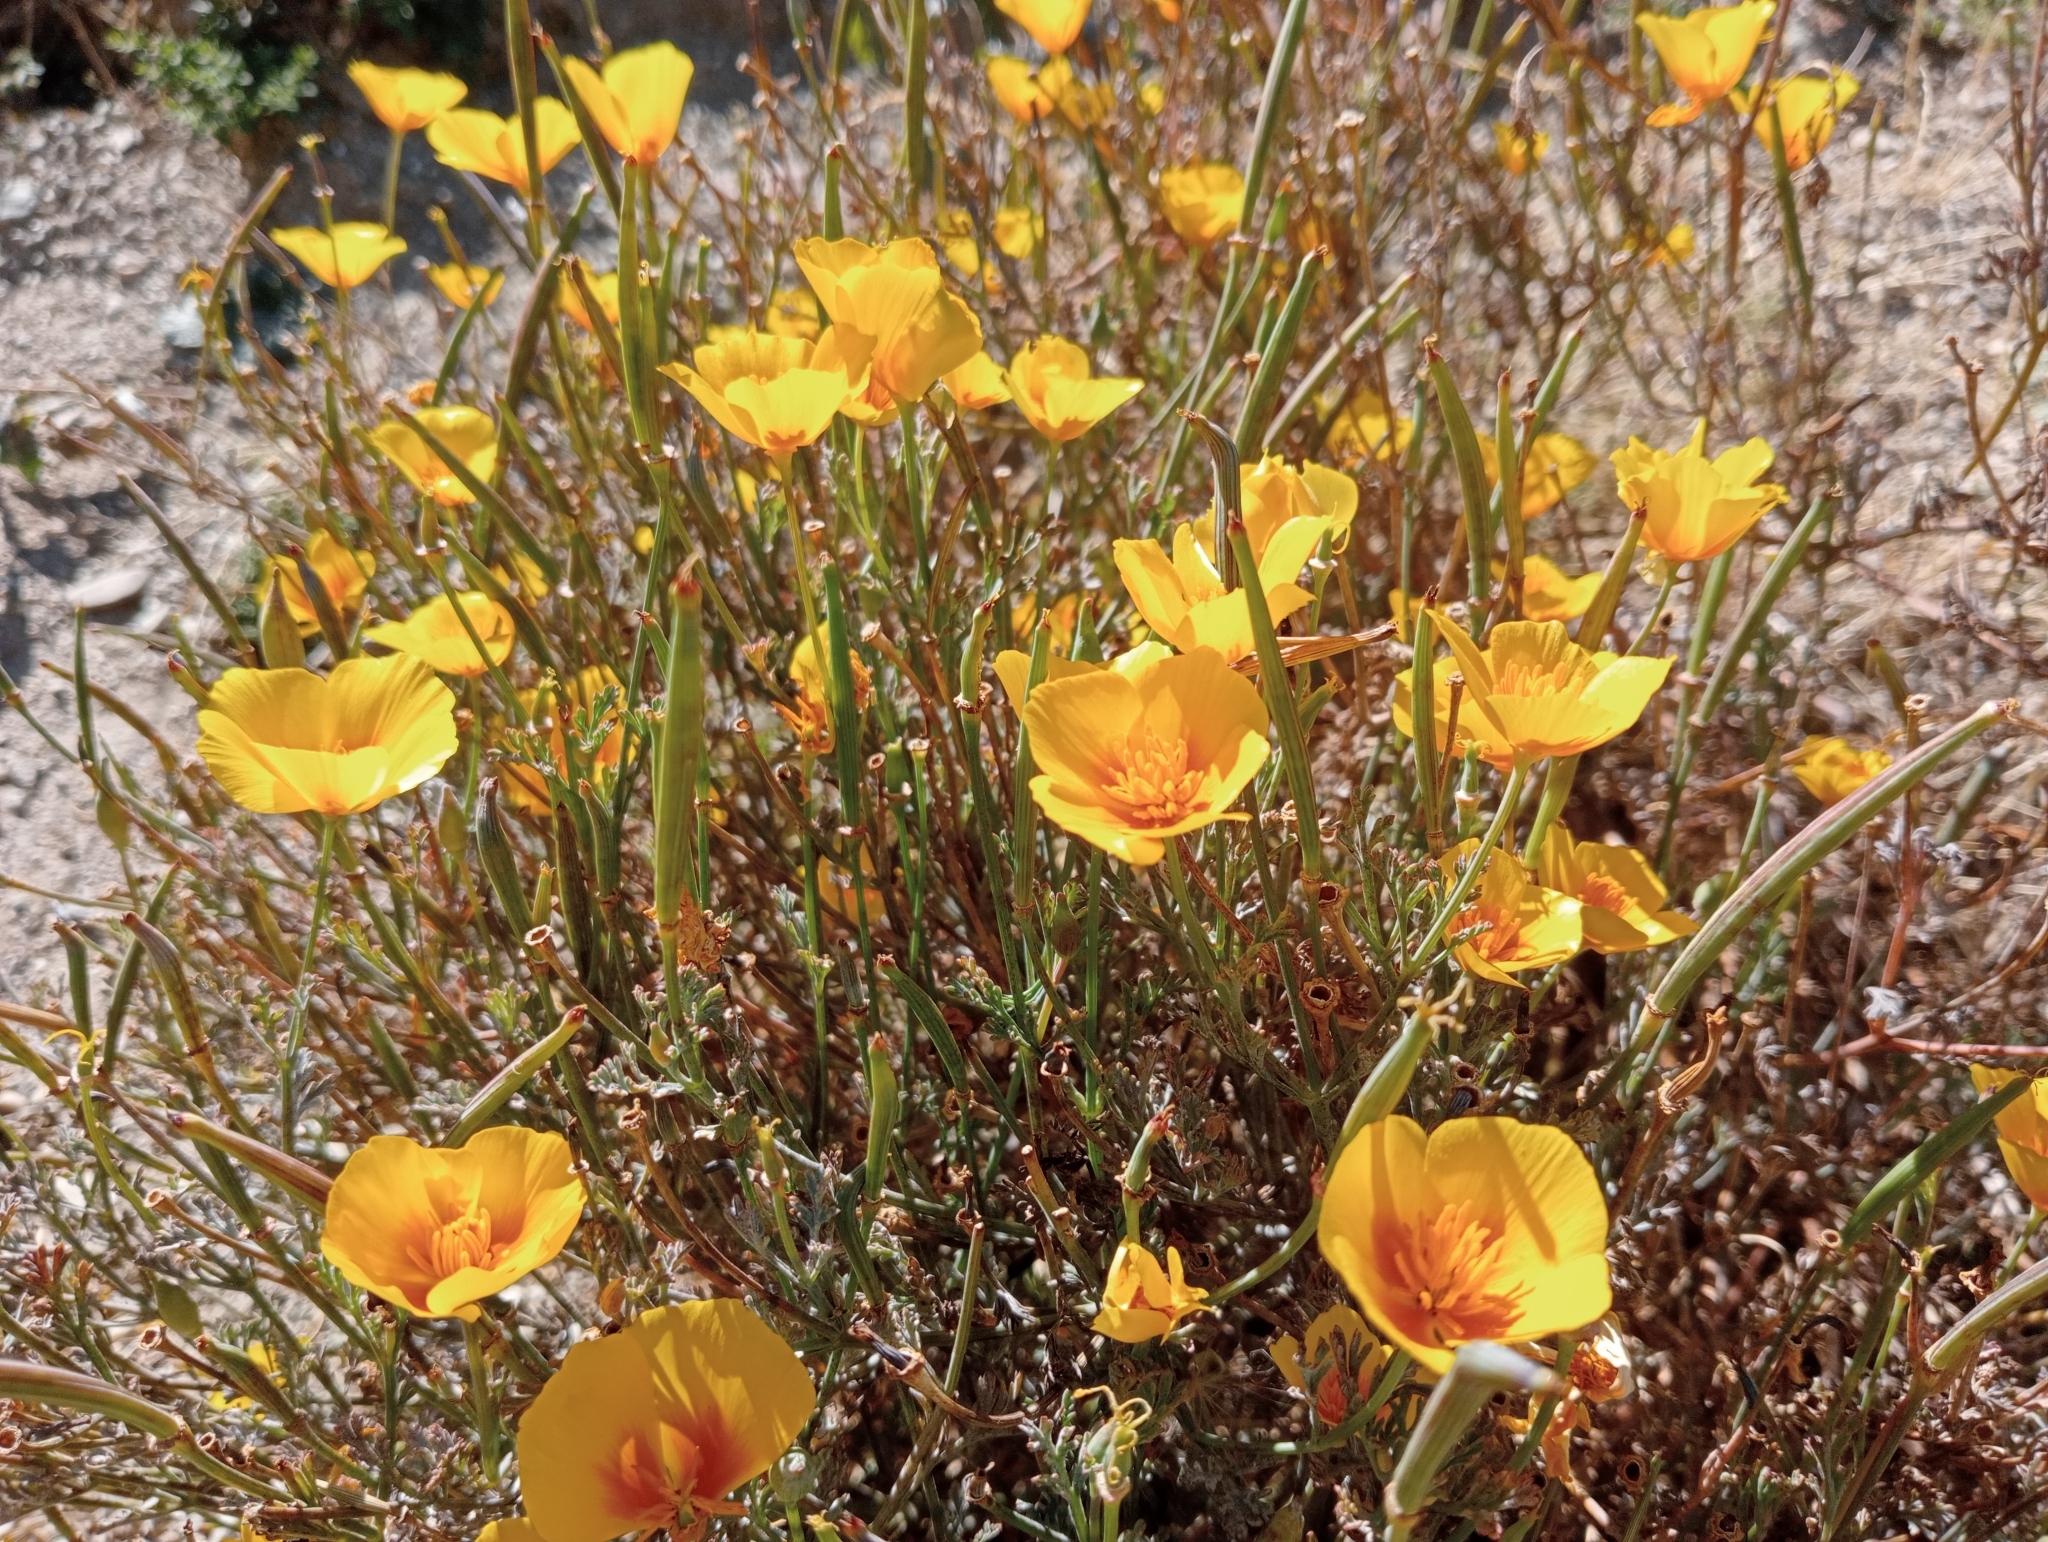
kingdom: Plantae
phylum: Tracheophyta
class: Magnoliopsida
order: Ranunculales
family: Papaveraceae
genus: Eschscholzia
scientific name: Eschscholzia californica
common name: California poppy
